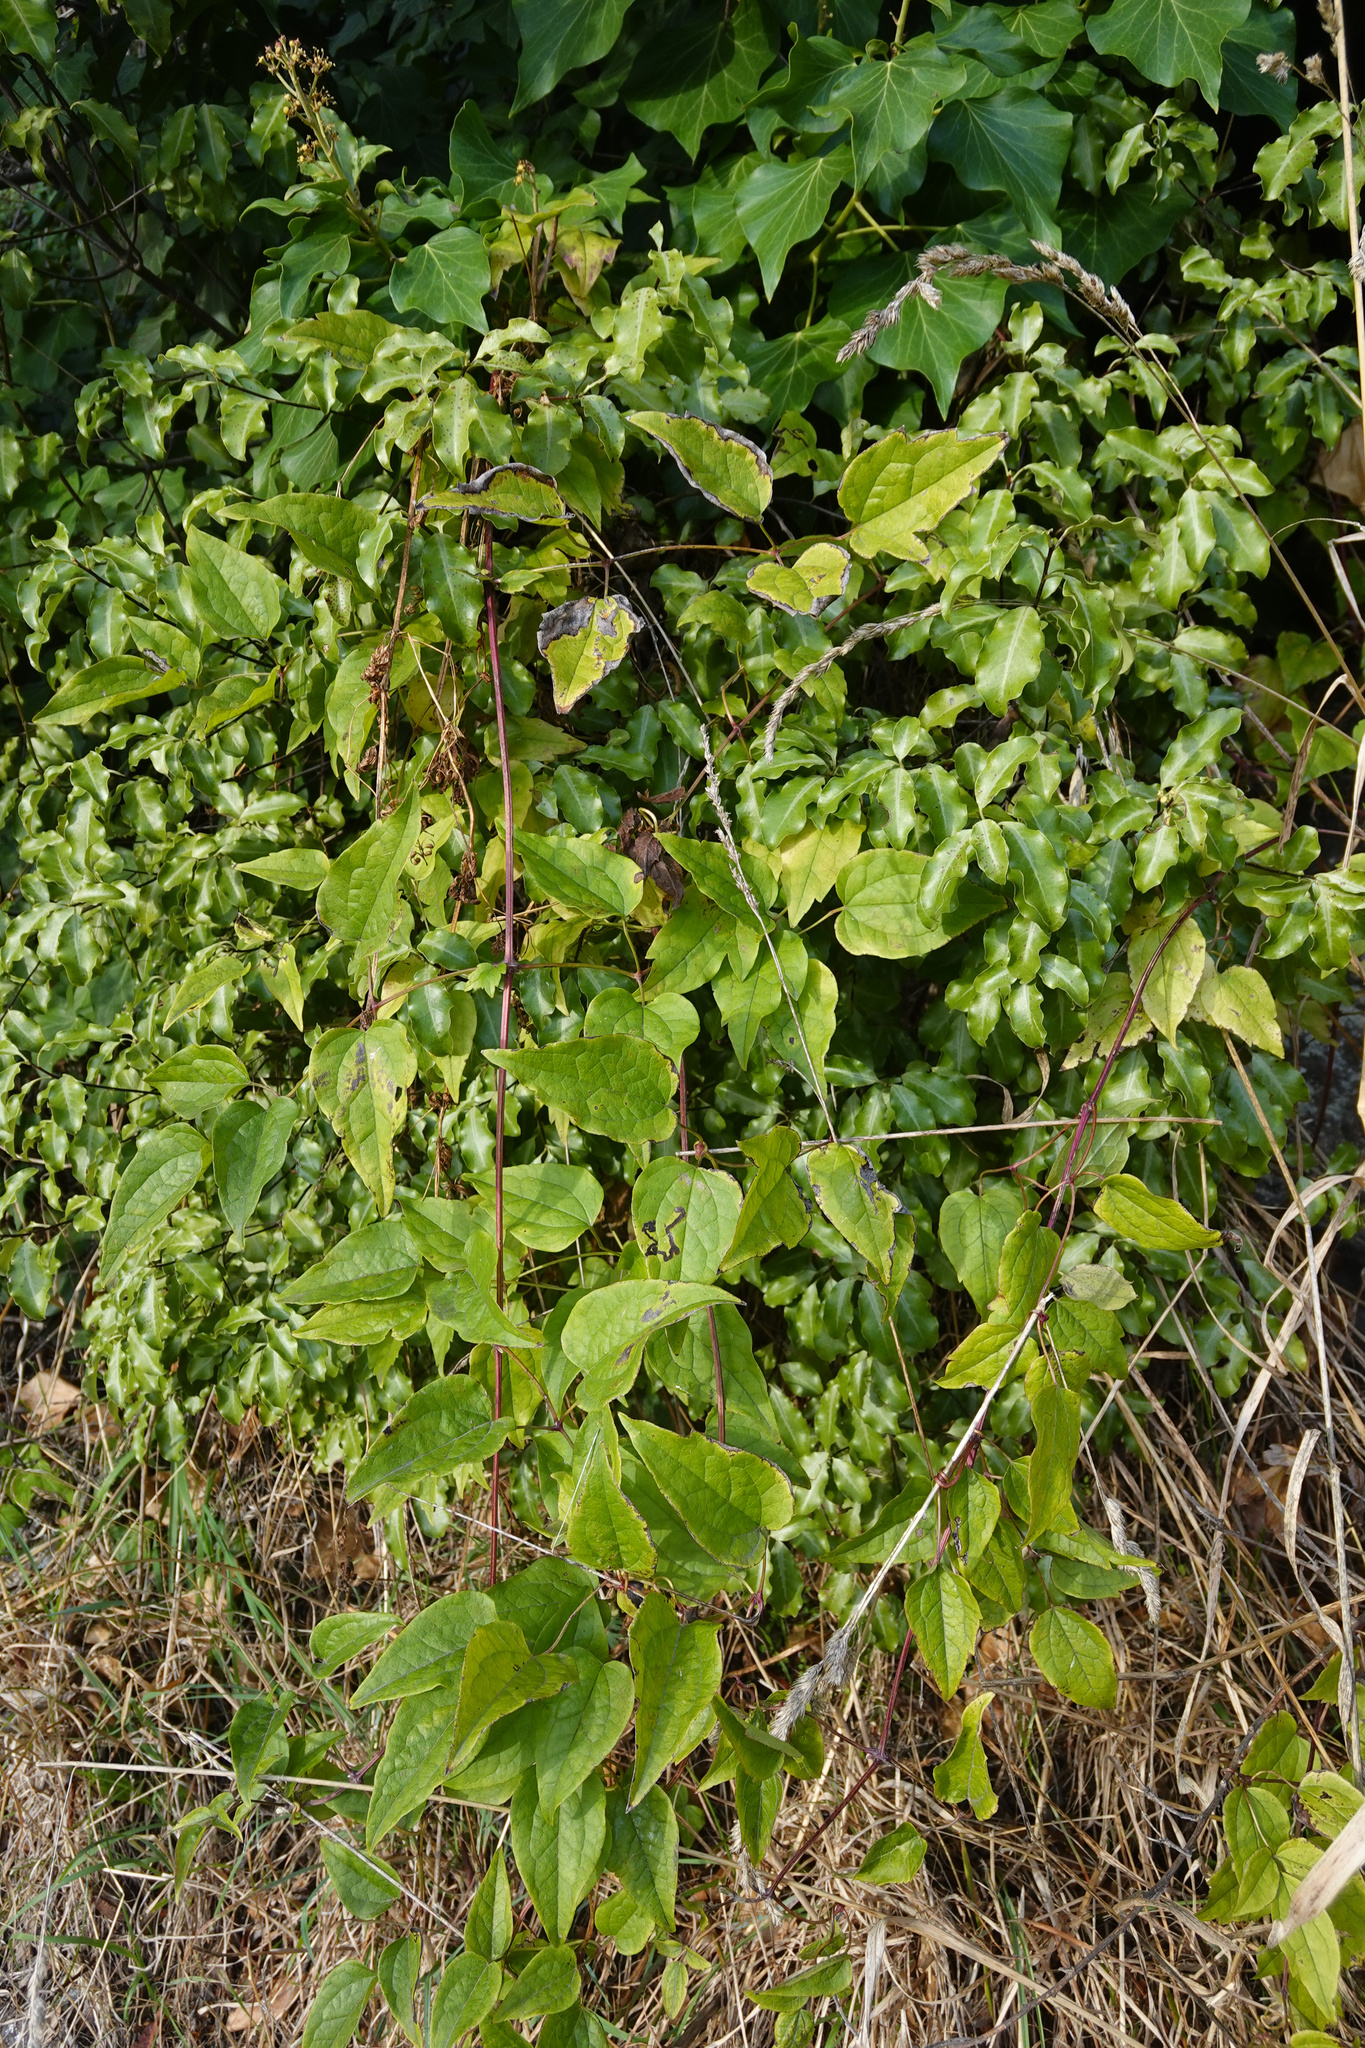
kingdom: Plantae
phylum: Tracheophyta
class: Magnoliopsida
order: Ranunculales
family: Ranunculaceae
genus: Clematis
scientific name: Clematis vitalba
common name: Evergreen clematis
